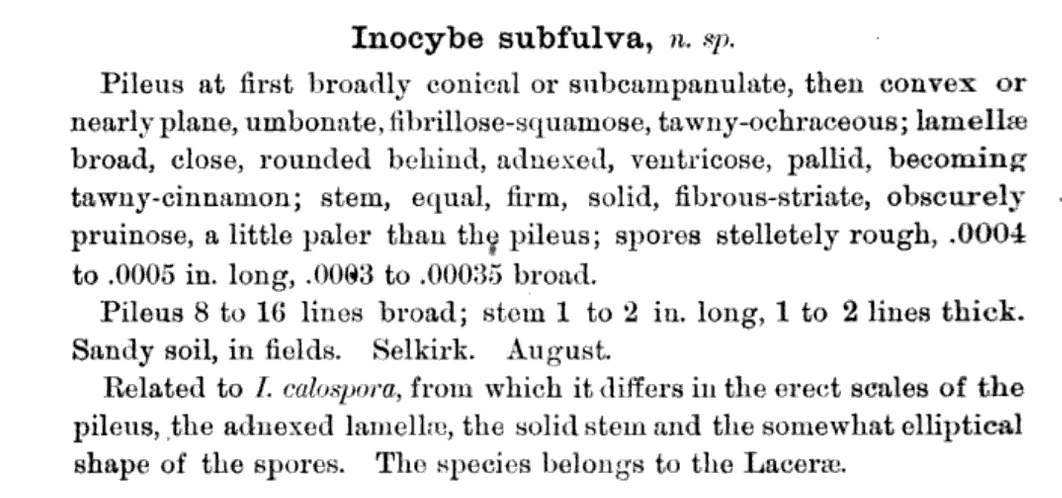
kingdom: Fungi
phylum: Basidiomycota
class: Agaricomycetes
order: Agaricales
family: Inocybaceae
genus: Inocybe
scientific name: Inocybe subfulva
